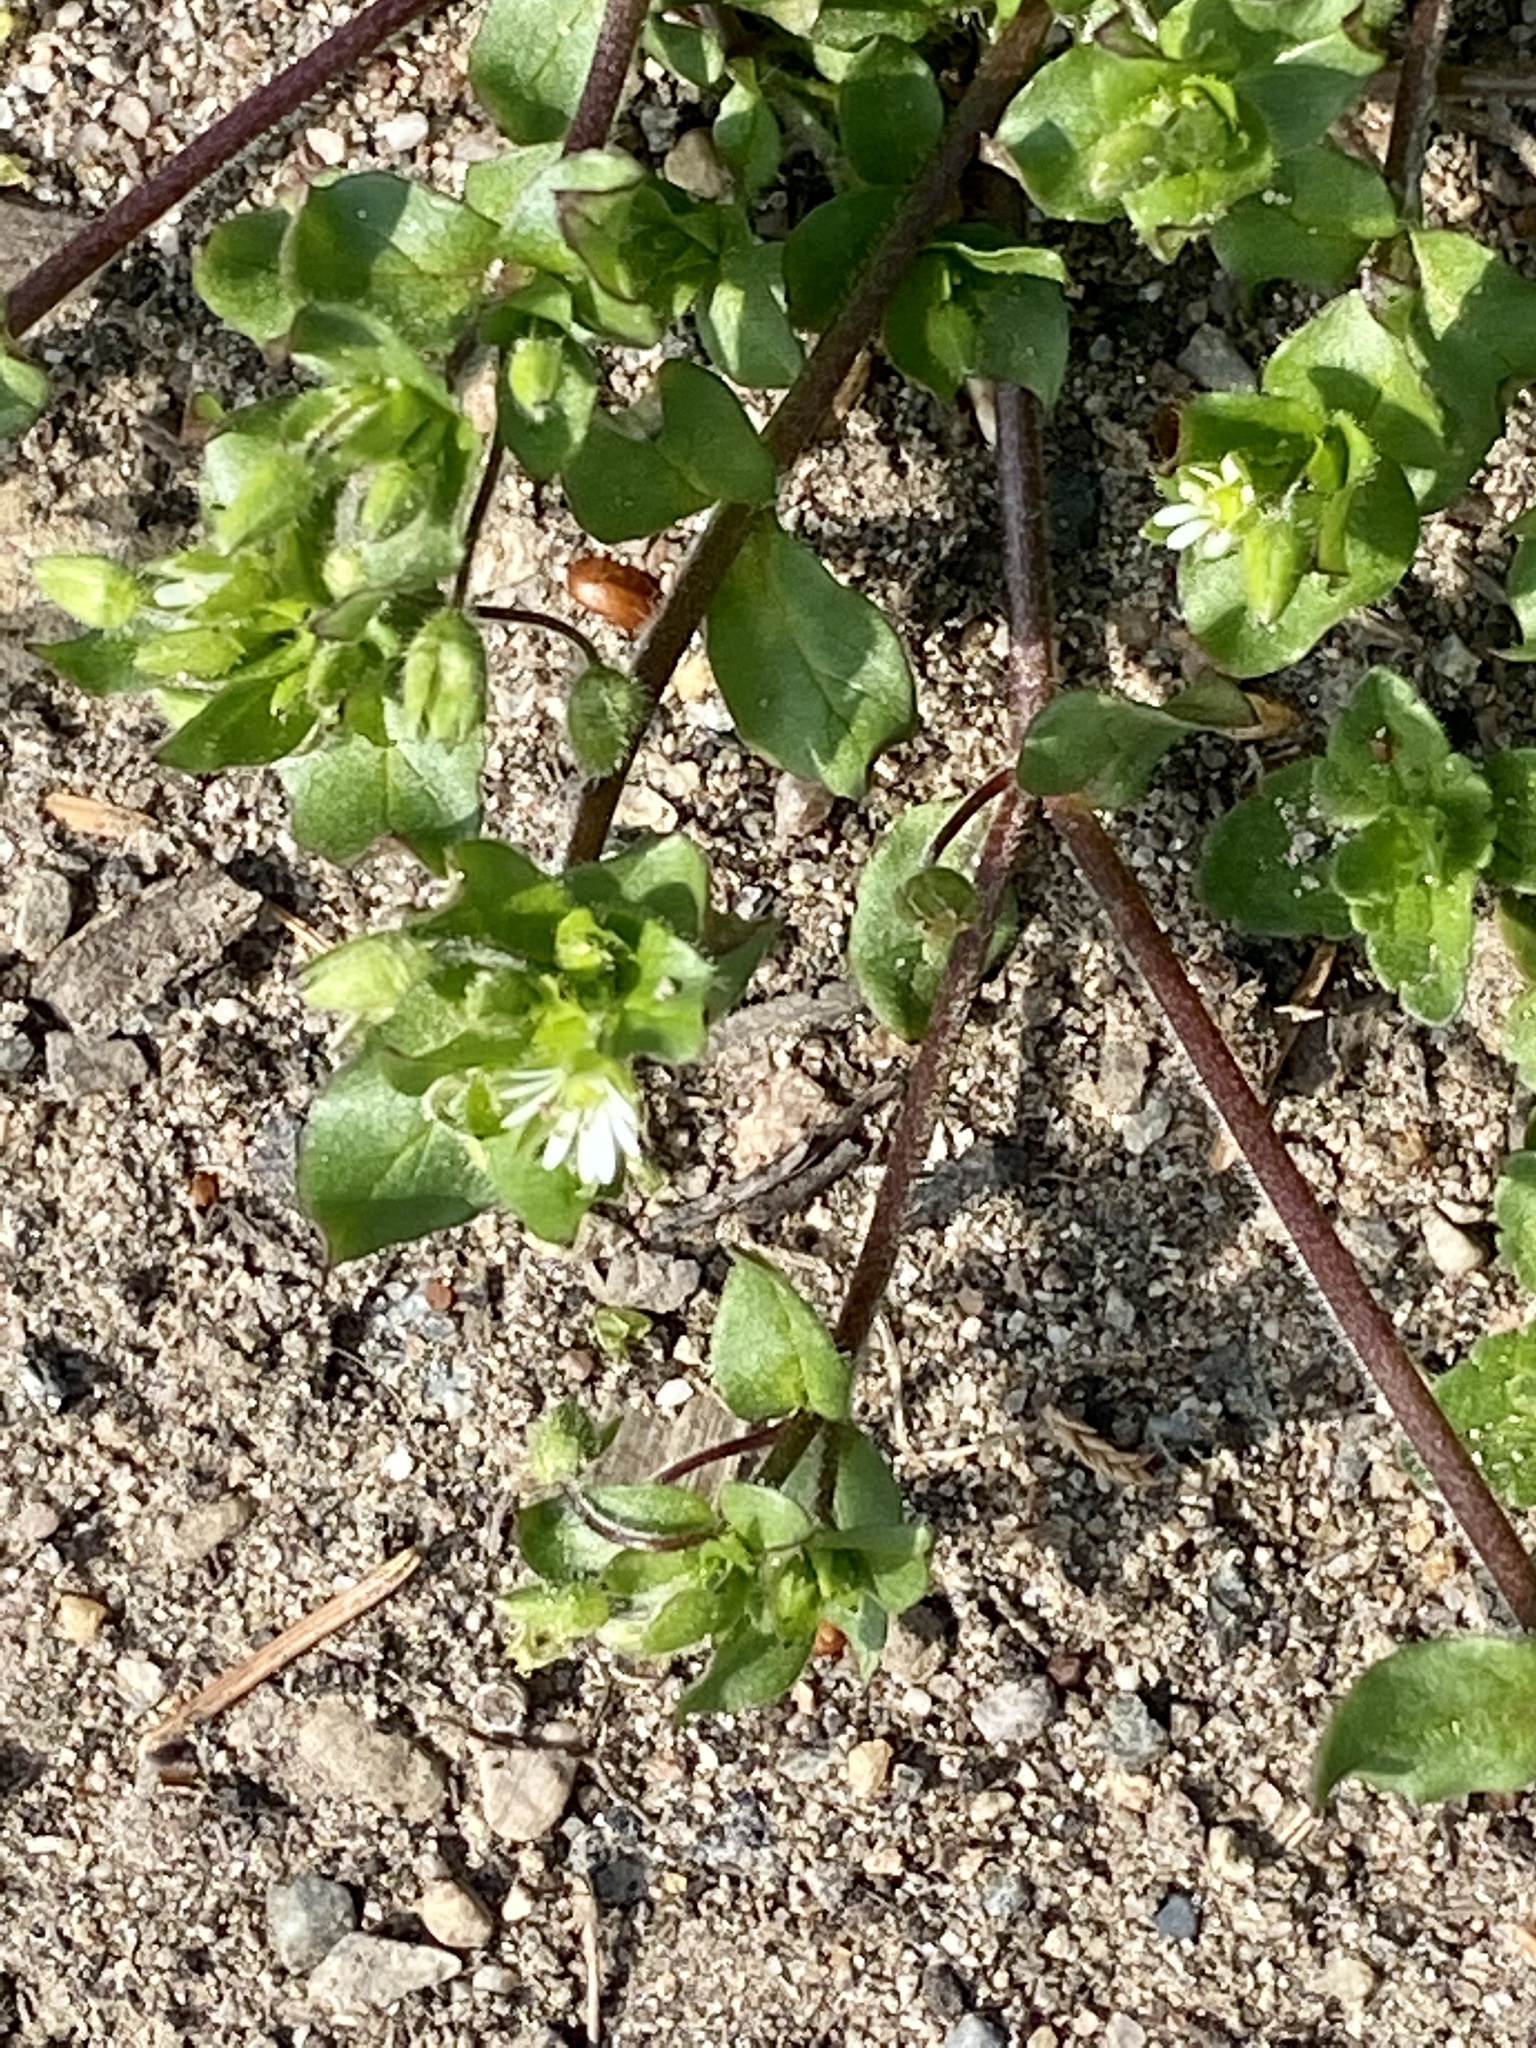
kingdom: Plantae
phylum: Tracheophyta
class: Magnoliopsida
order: Caryophyllales
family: Caryophyllaceae
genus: Stellaria
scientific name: Stellaria media
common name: Common chickweed
